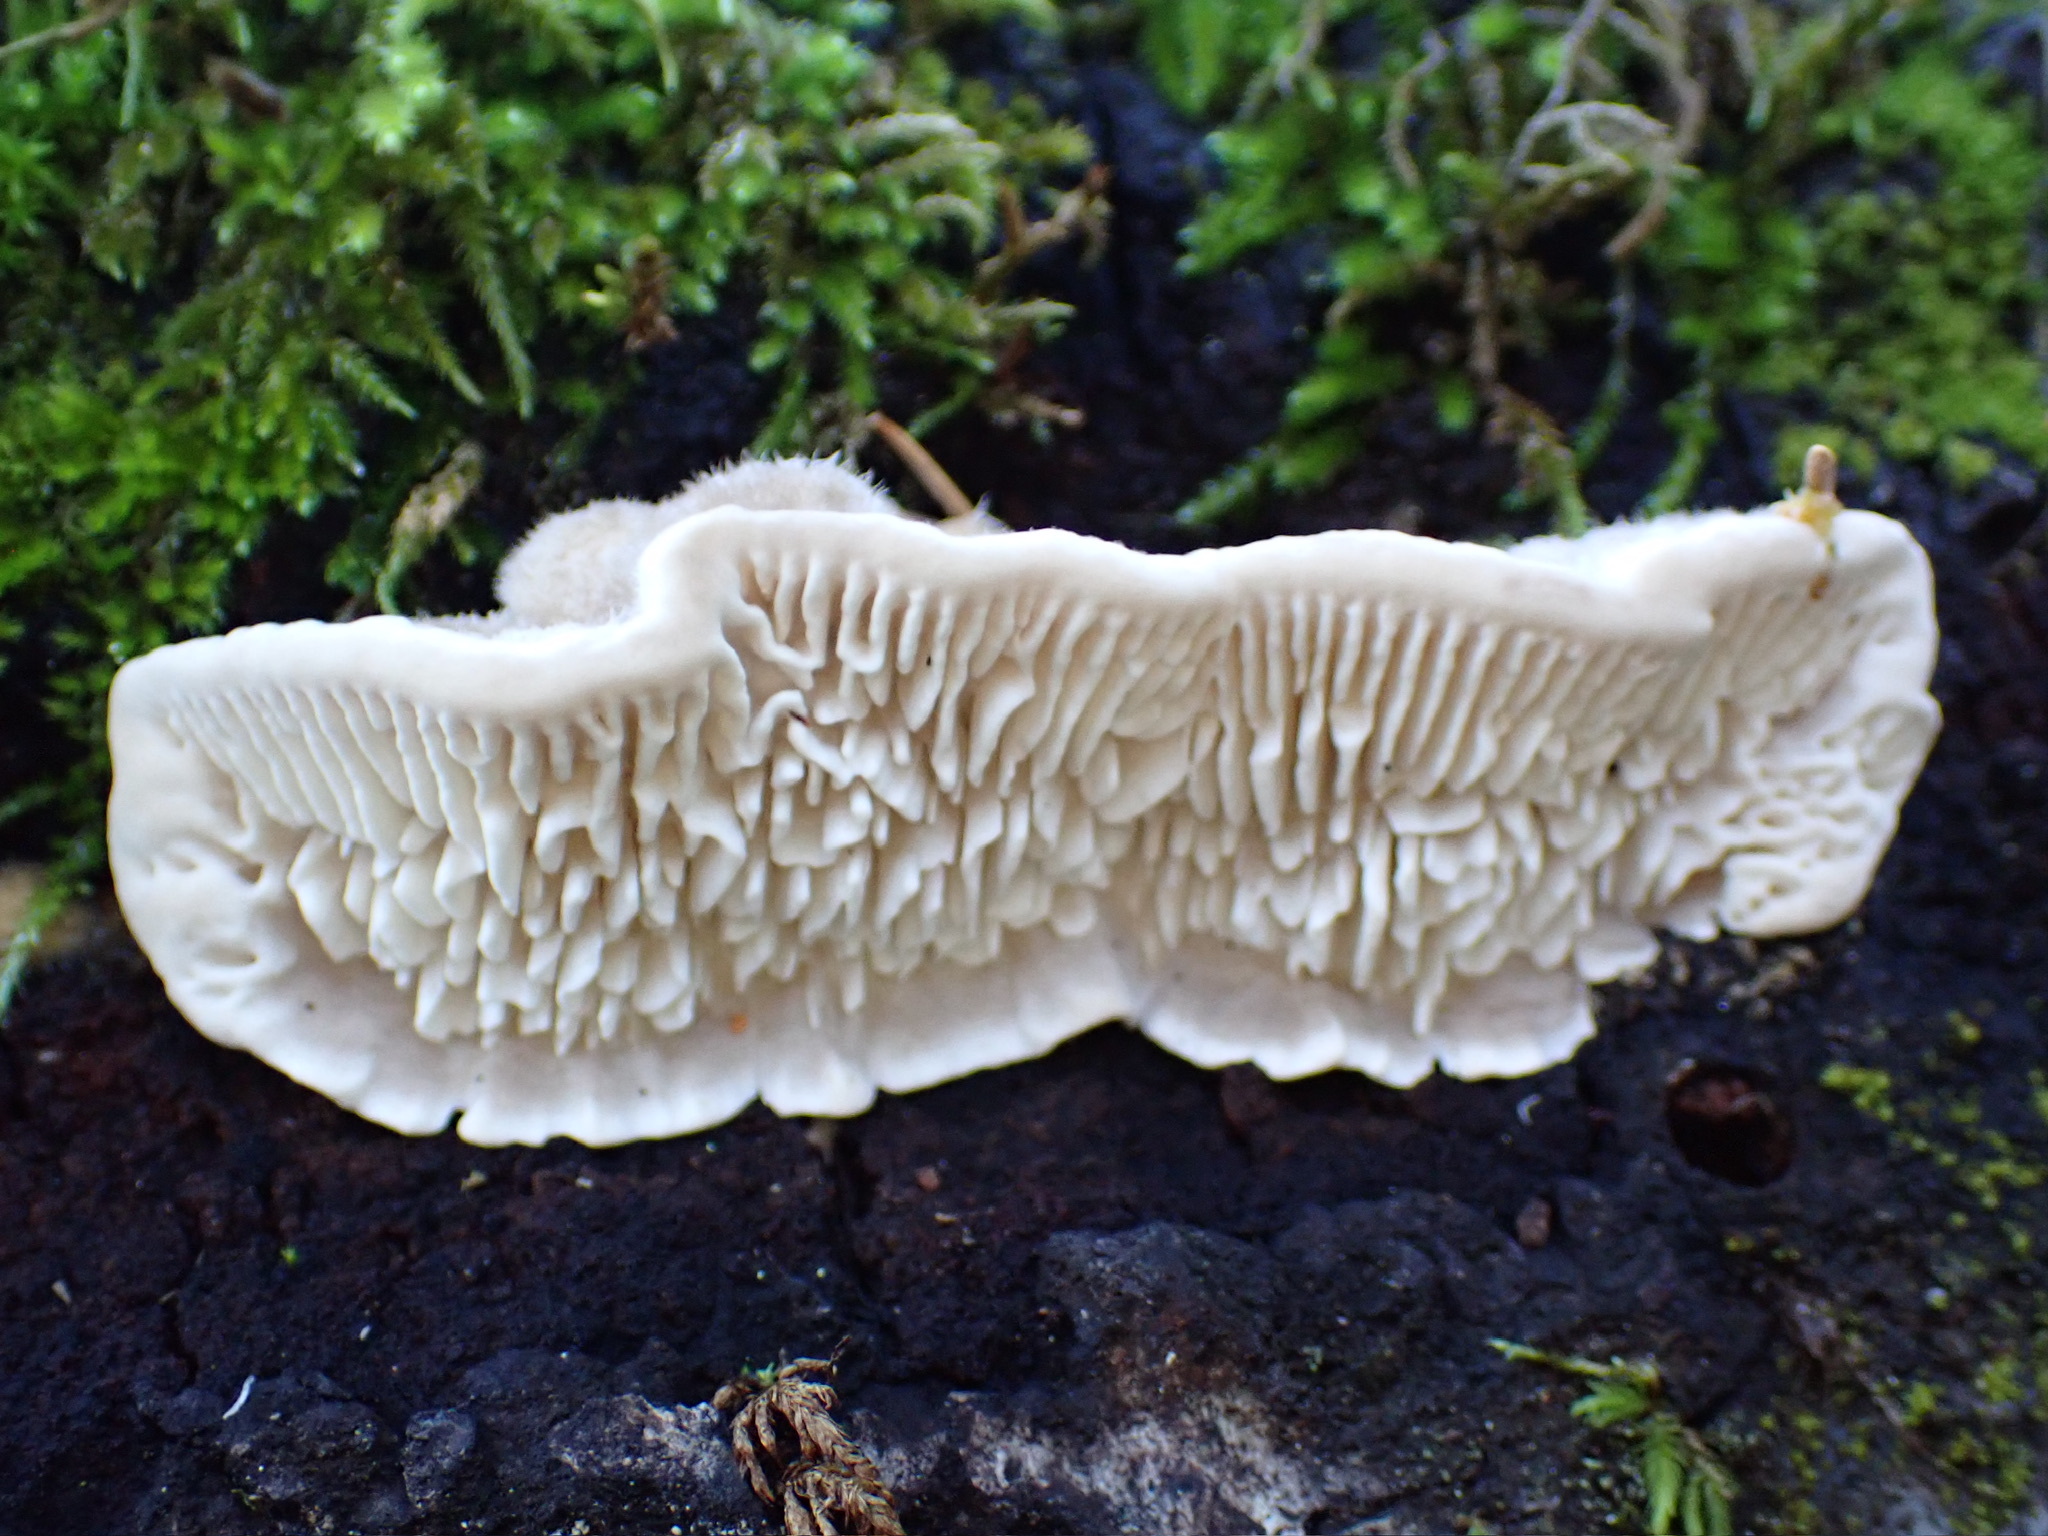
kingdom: Fungi
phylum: Basidiomycota
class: Agaricomycetes
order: Polyporales
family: Polyporaceae
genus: Lenzites
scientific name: Lenzites betulinus
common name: Birch mazegill
